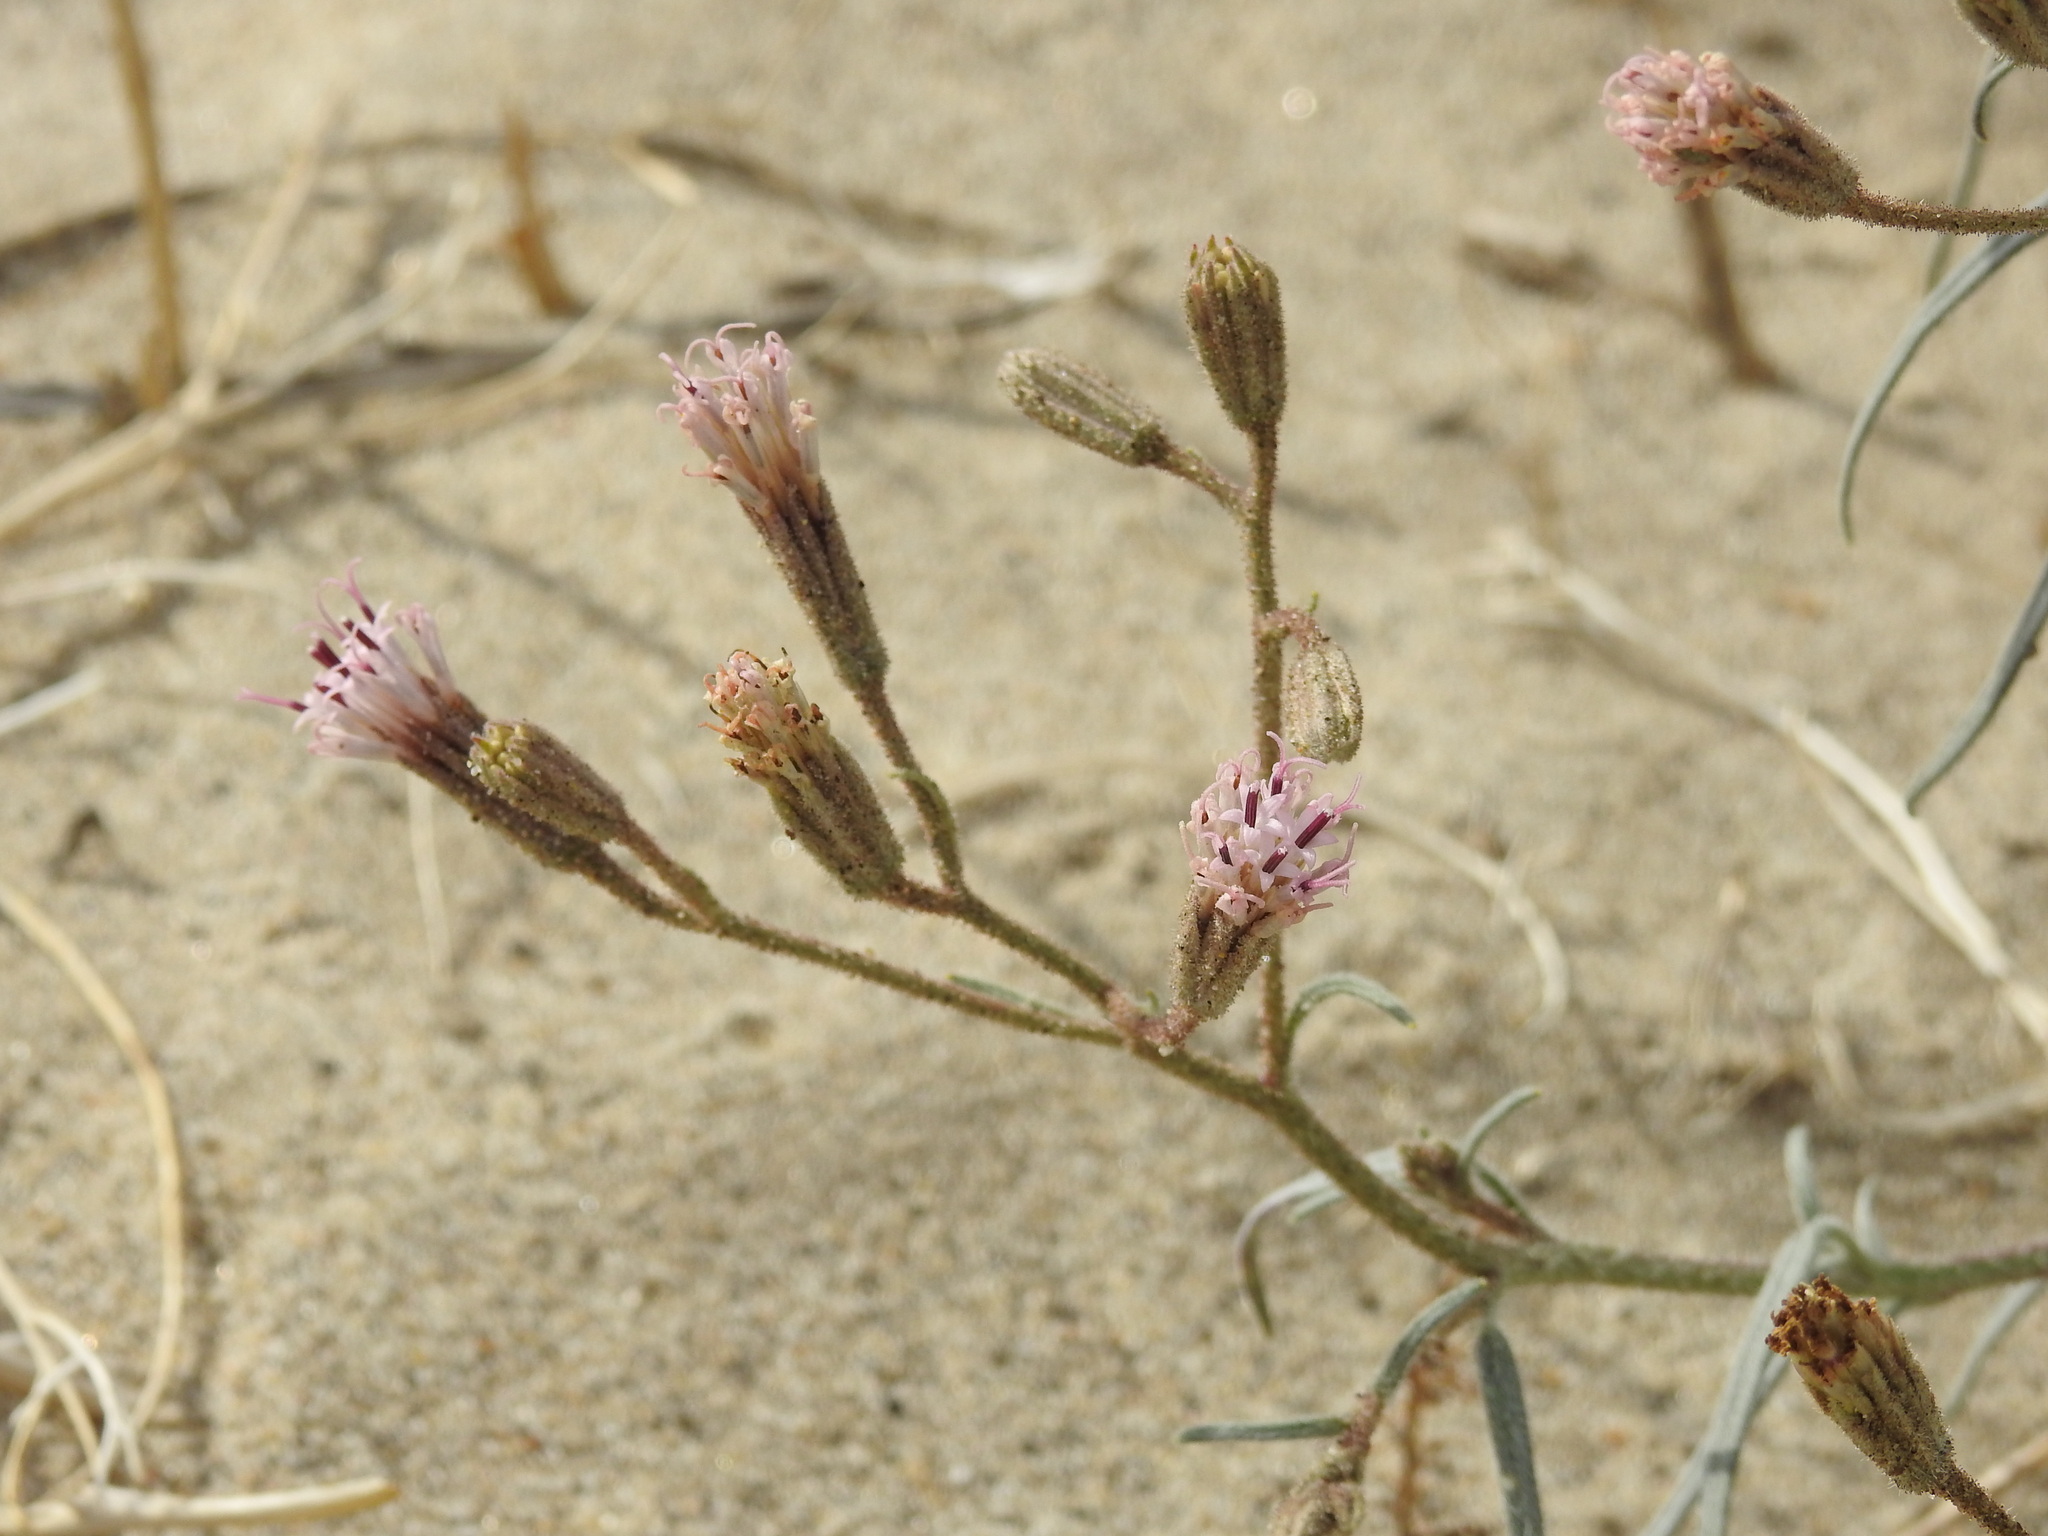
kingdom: Plantae
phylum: Tracheophyta
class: Magnoliopsida
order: Asterales
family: Asteraceae
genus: Palafoxia
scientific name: Palafoxia arida
